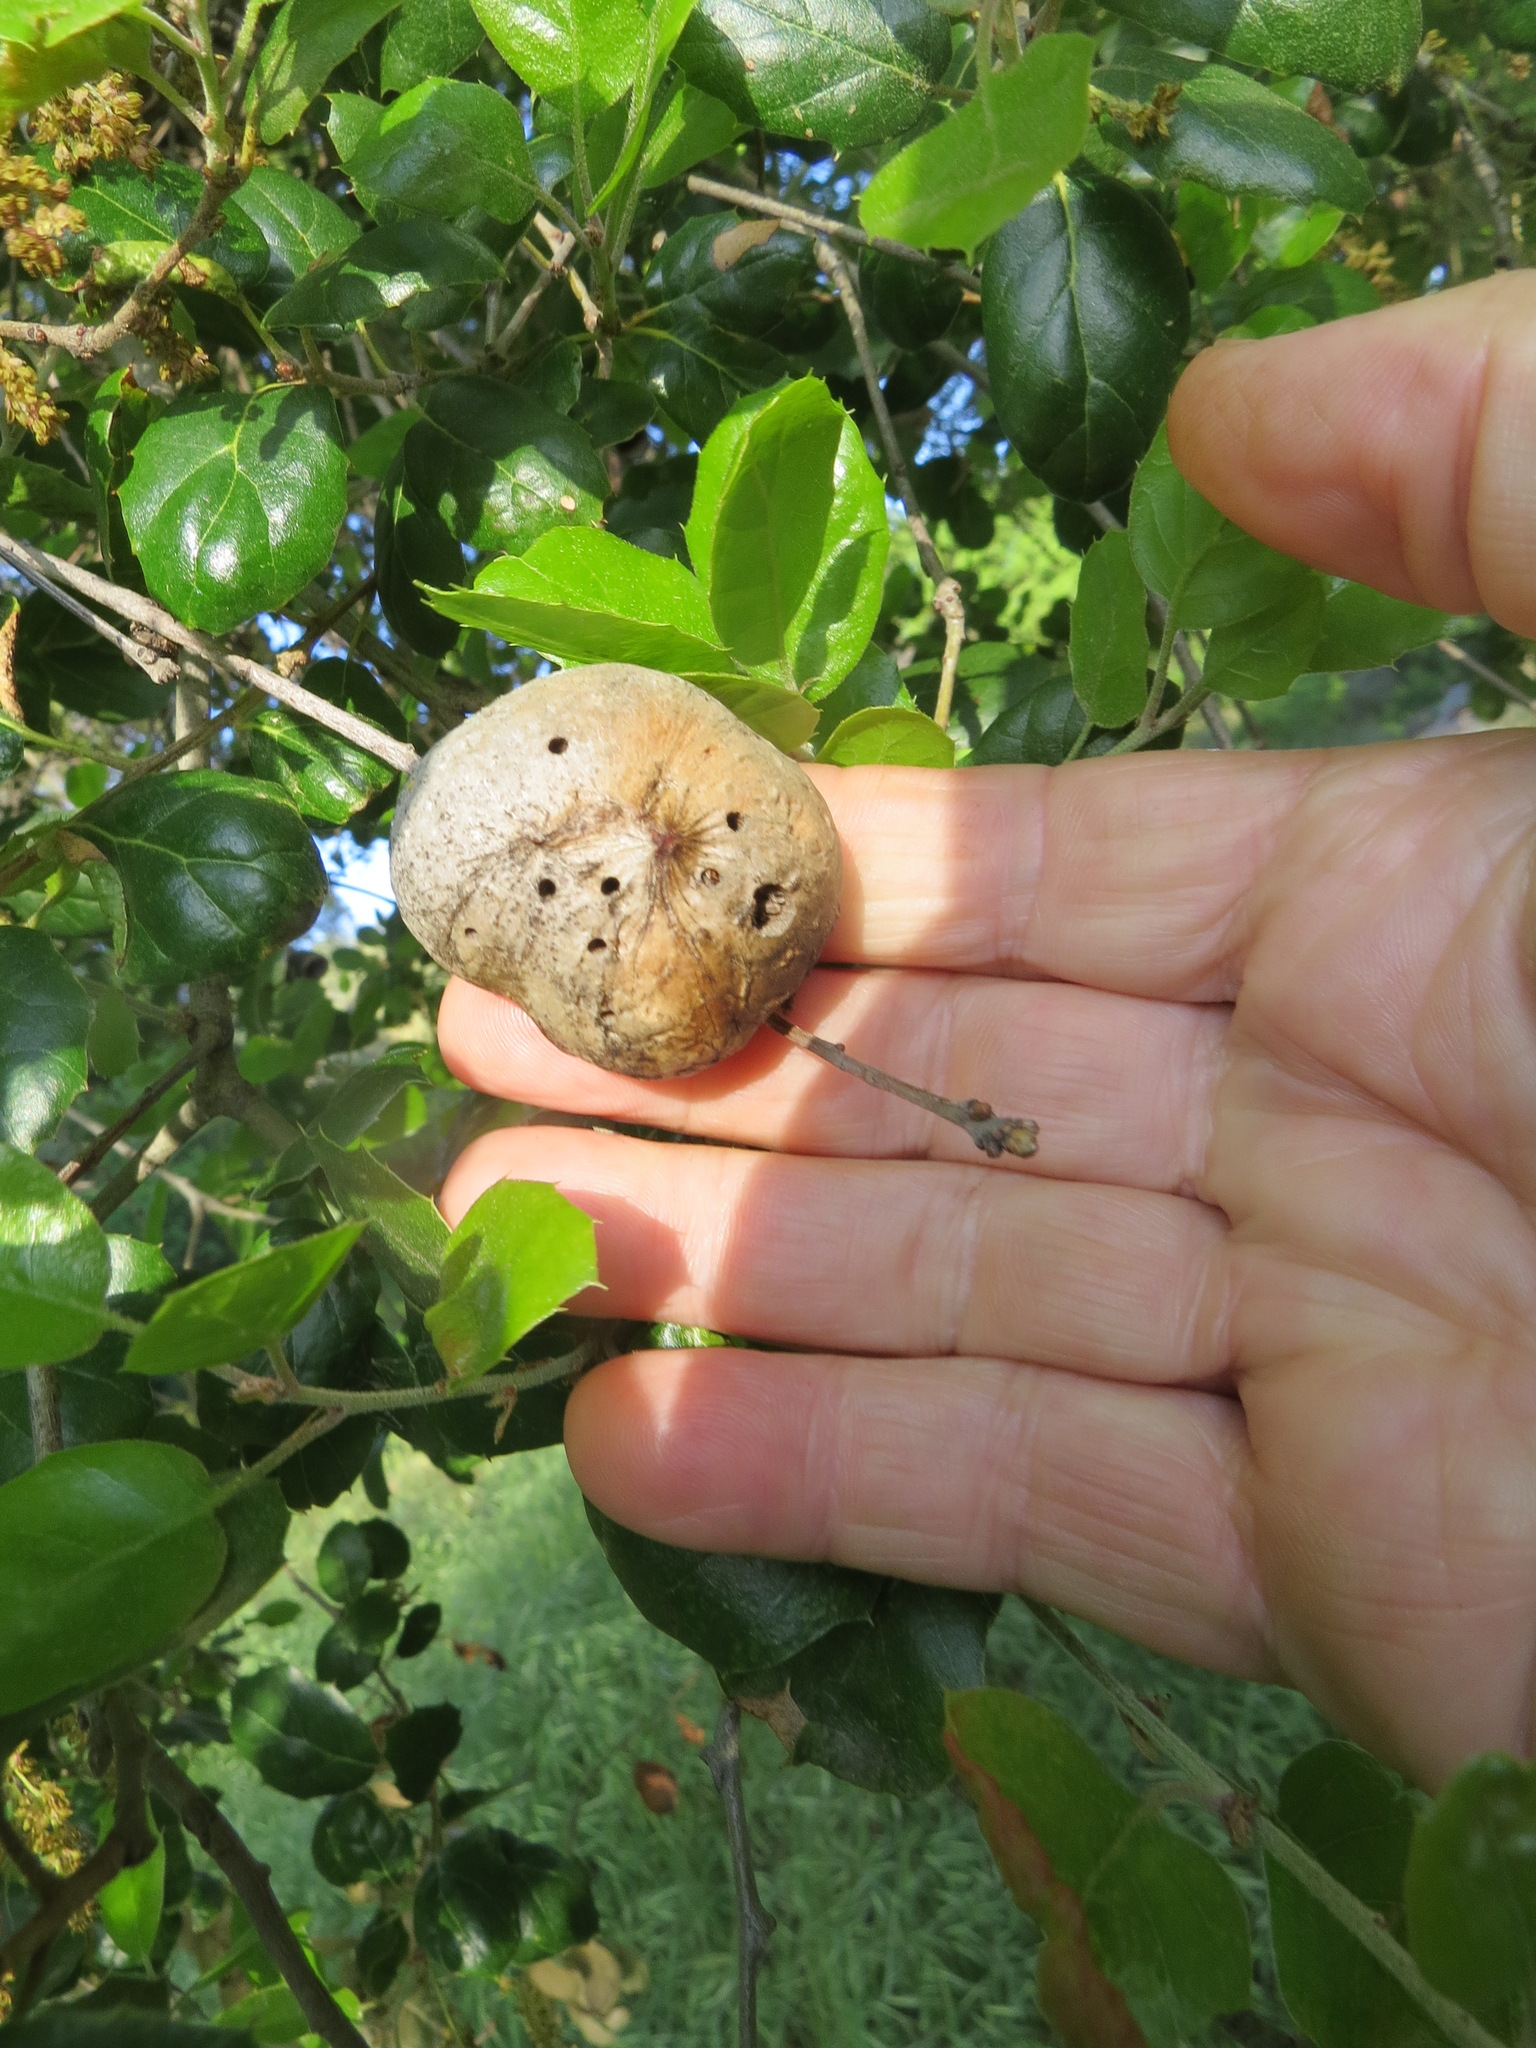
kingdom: Animalia
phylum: Arthropoda
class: Insecta
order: Hymenoptera
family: Cynipidae
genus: Amphibolips
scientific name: Amphibolips quercuspomiformis
